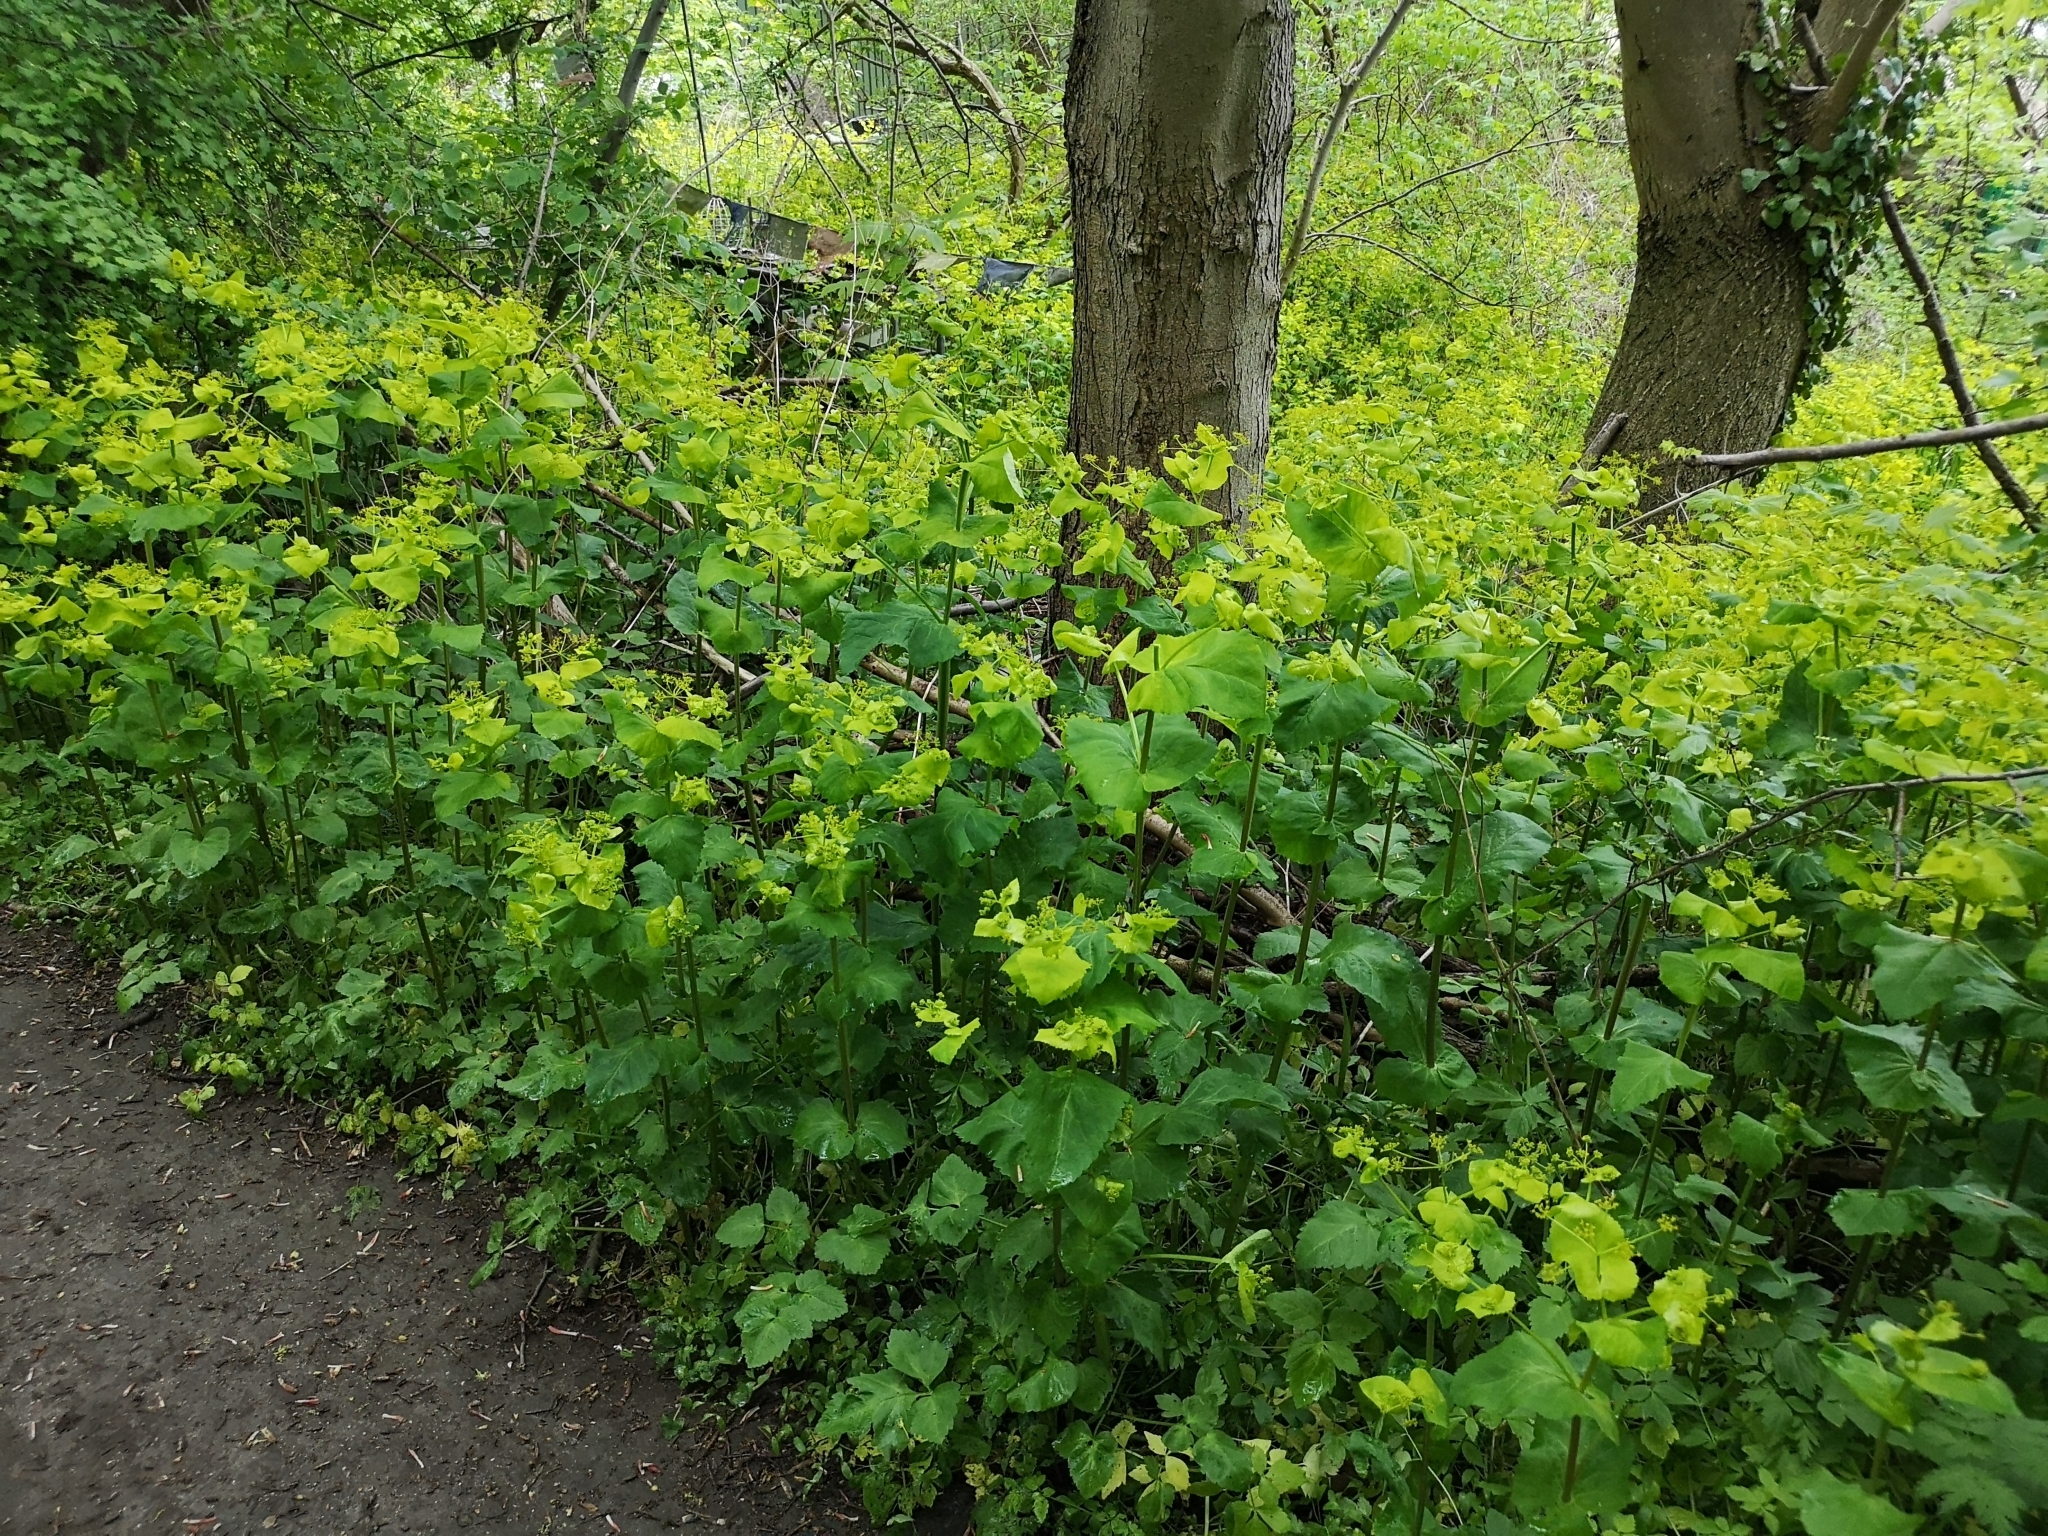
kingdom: Plantae
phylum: Tracheophyta
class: Magnoliopsida
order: Apiales
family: Apiaceae
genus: Smyrnium
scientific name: Smyrnium perfoliatum
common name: Perfoliate alexanders
